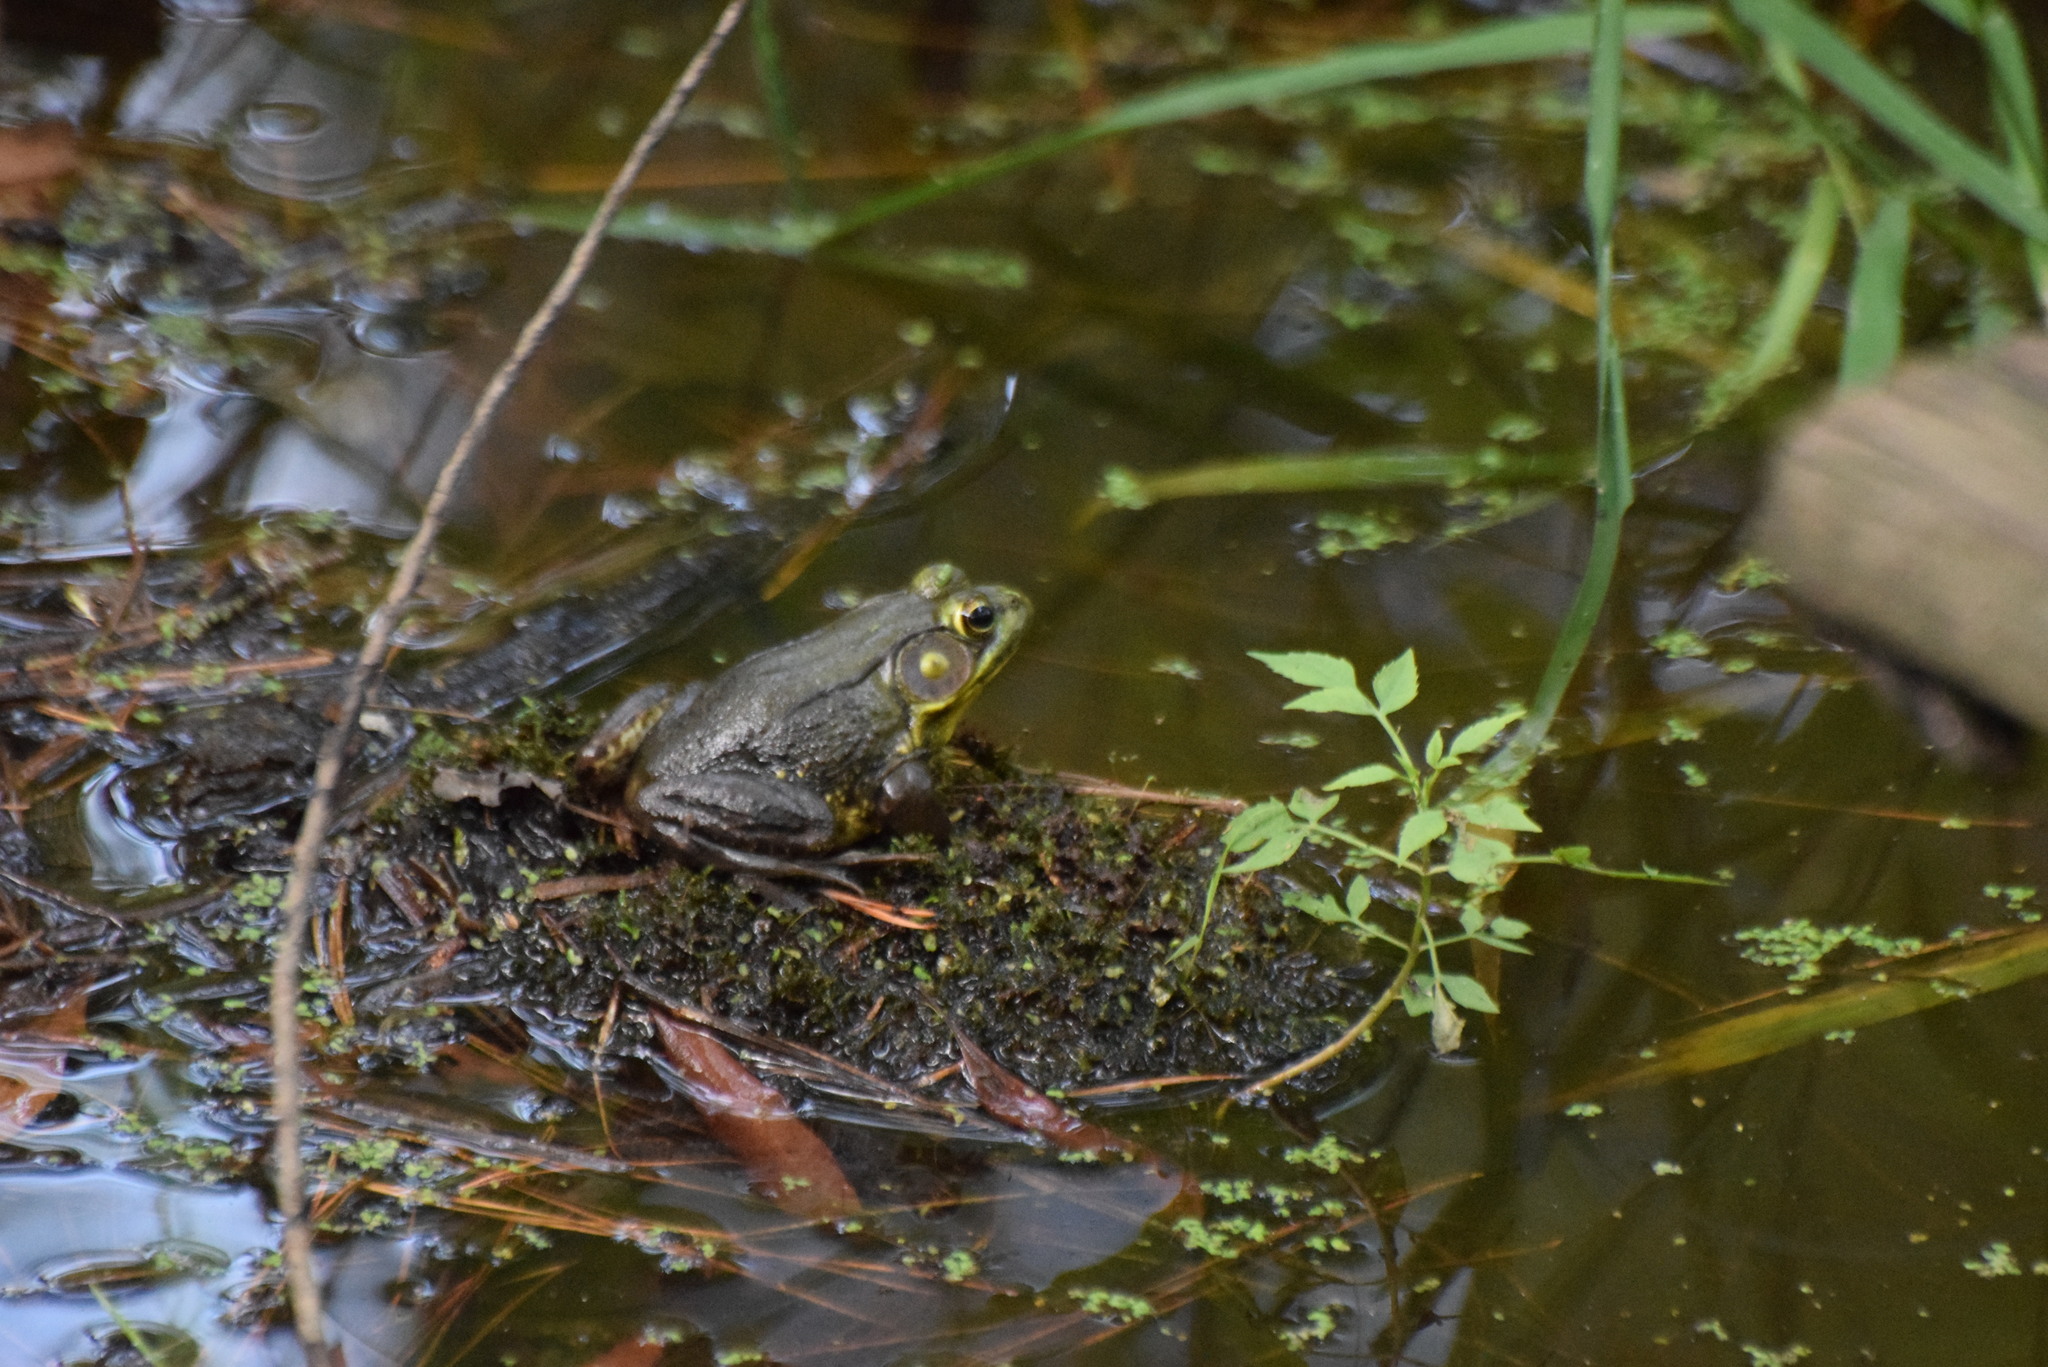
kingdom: Animalia
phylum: Chordata
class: Amphibia
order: Anura
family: Ranidae
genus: Lithobates
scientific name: Lithobates clamitans
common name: Green frog
